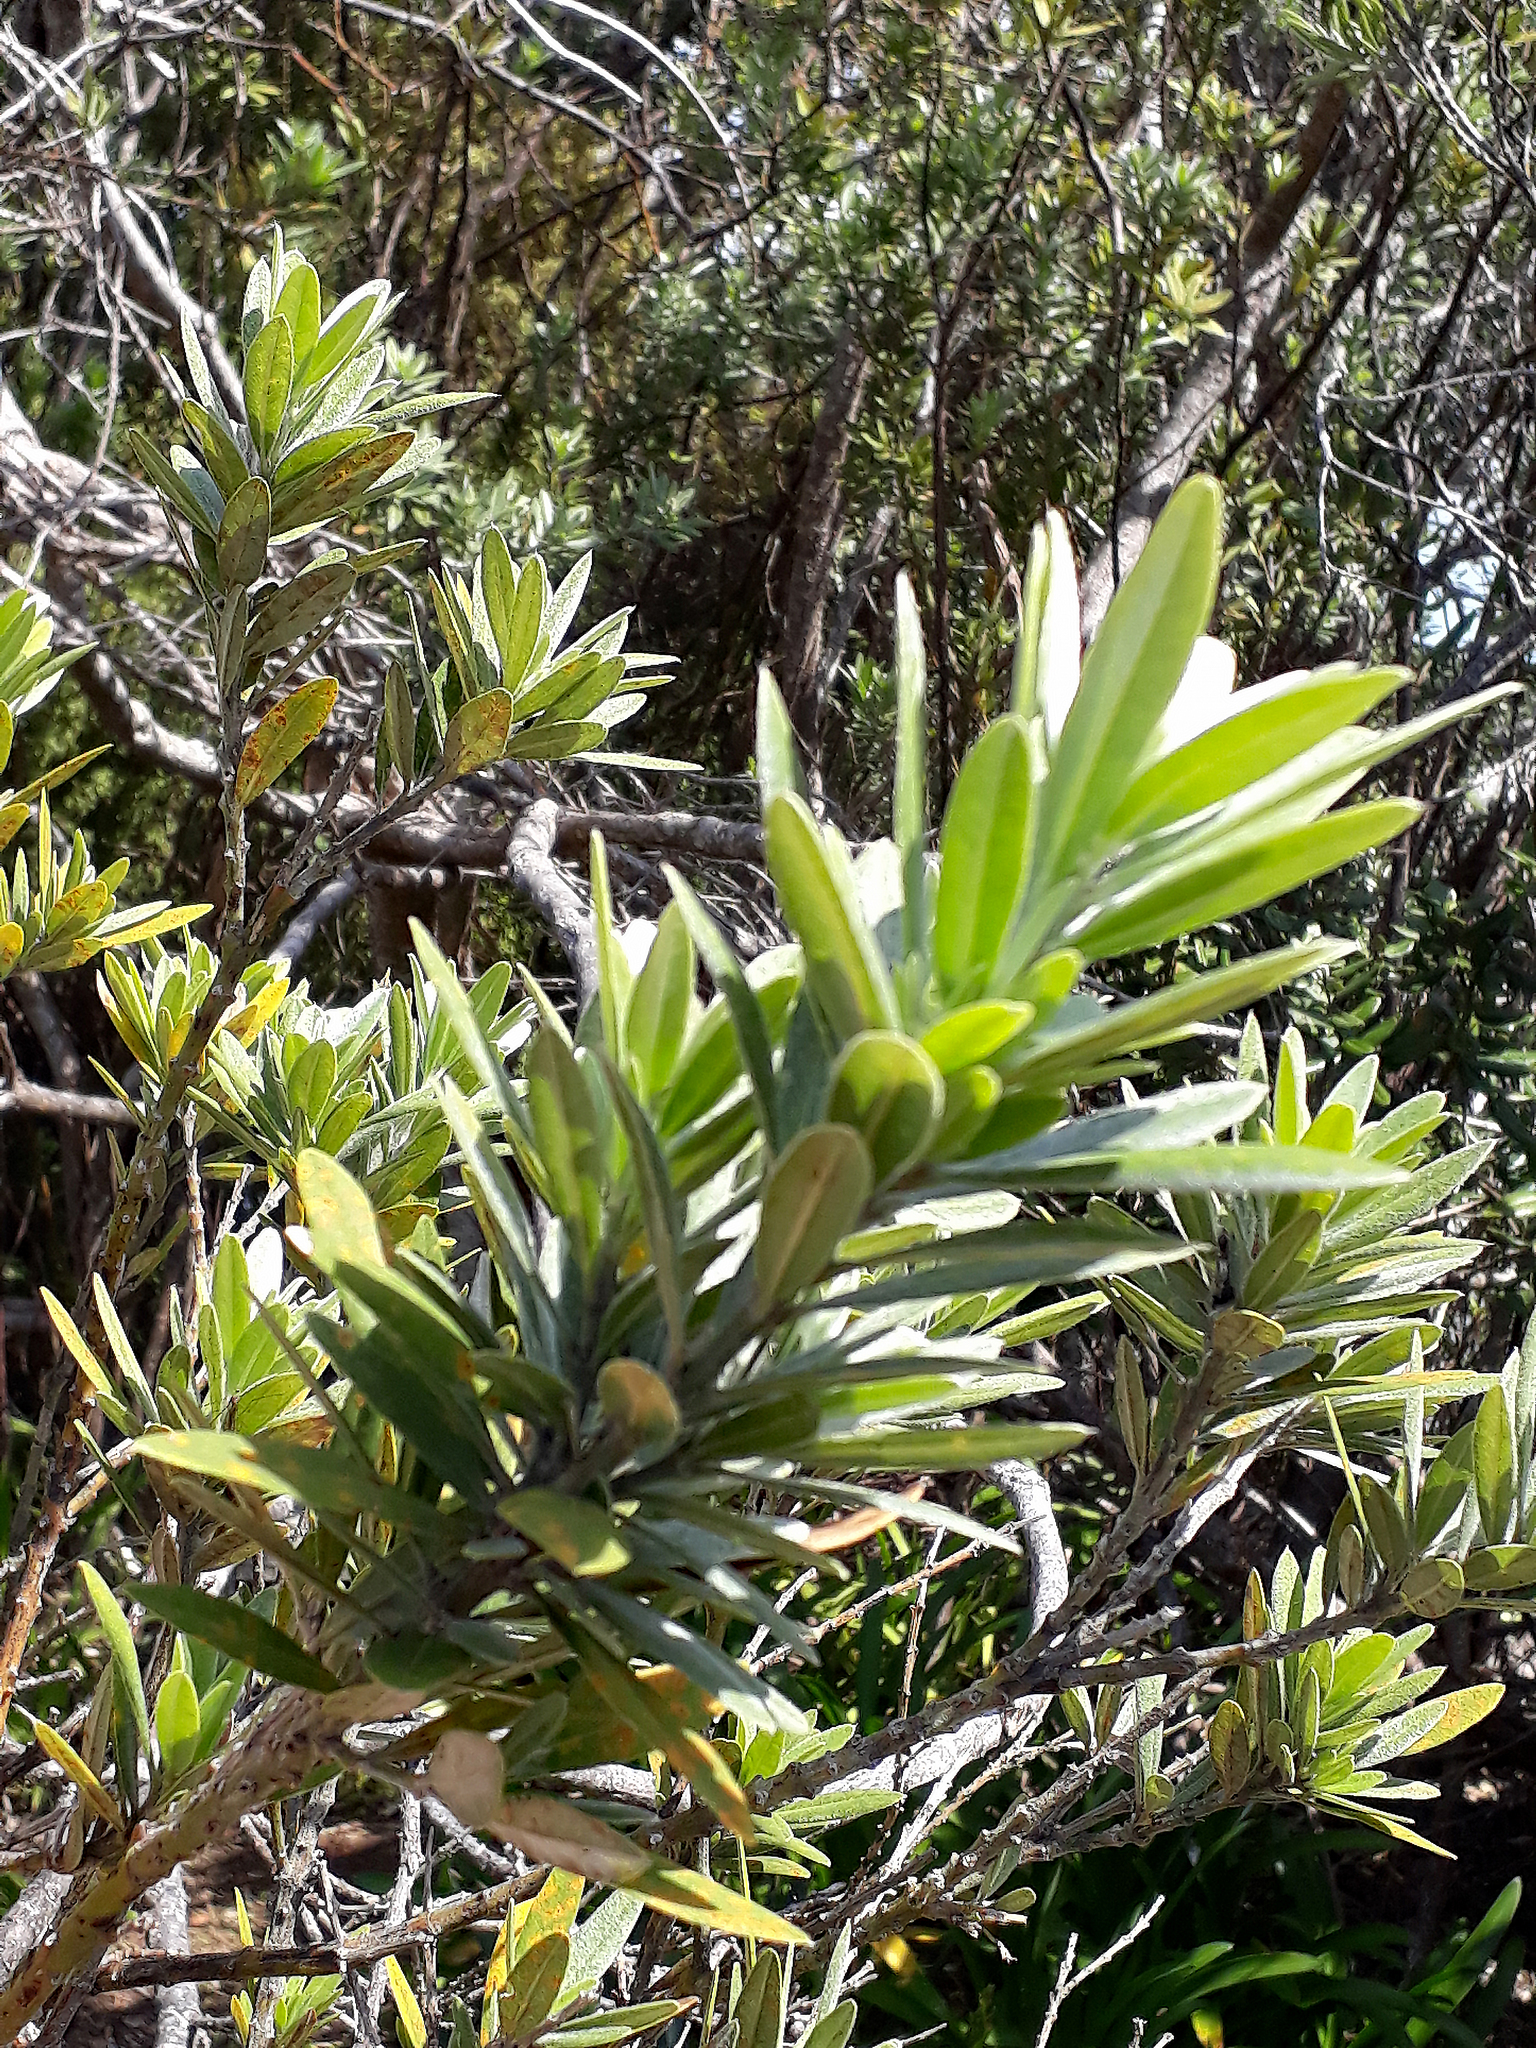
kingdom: Plantae
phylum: Tracheophyta
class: Magnoliopsida
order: Fabales
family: Fabaceae
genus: Callistachys
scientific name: Callistachys lanceolata
